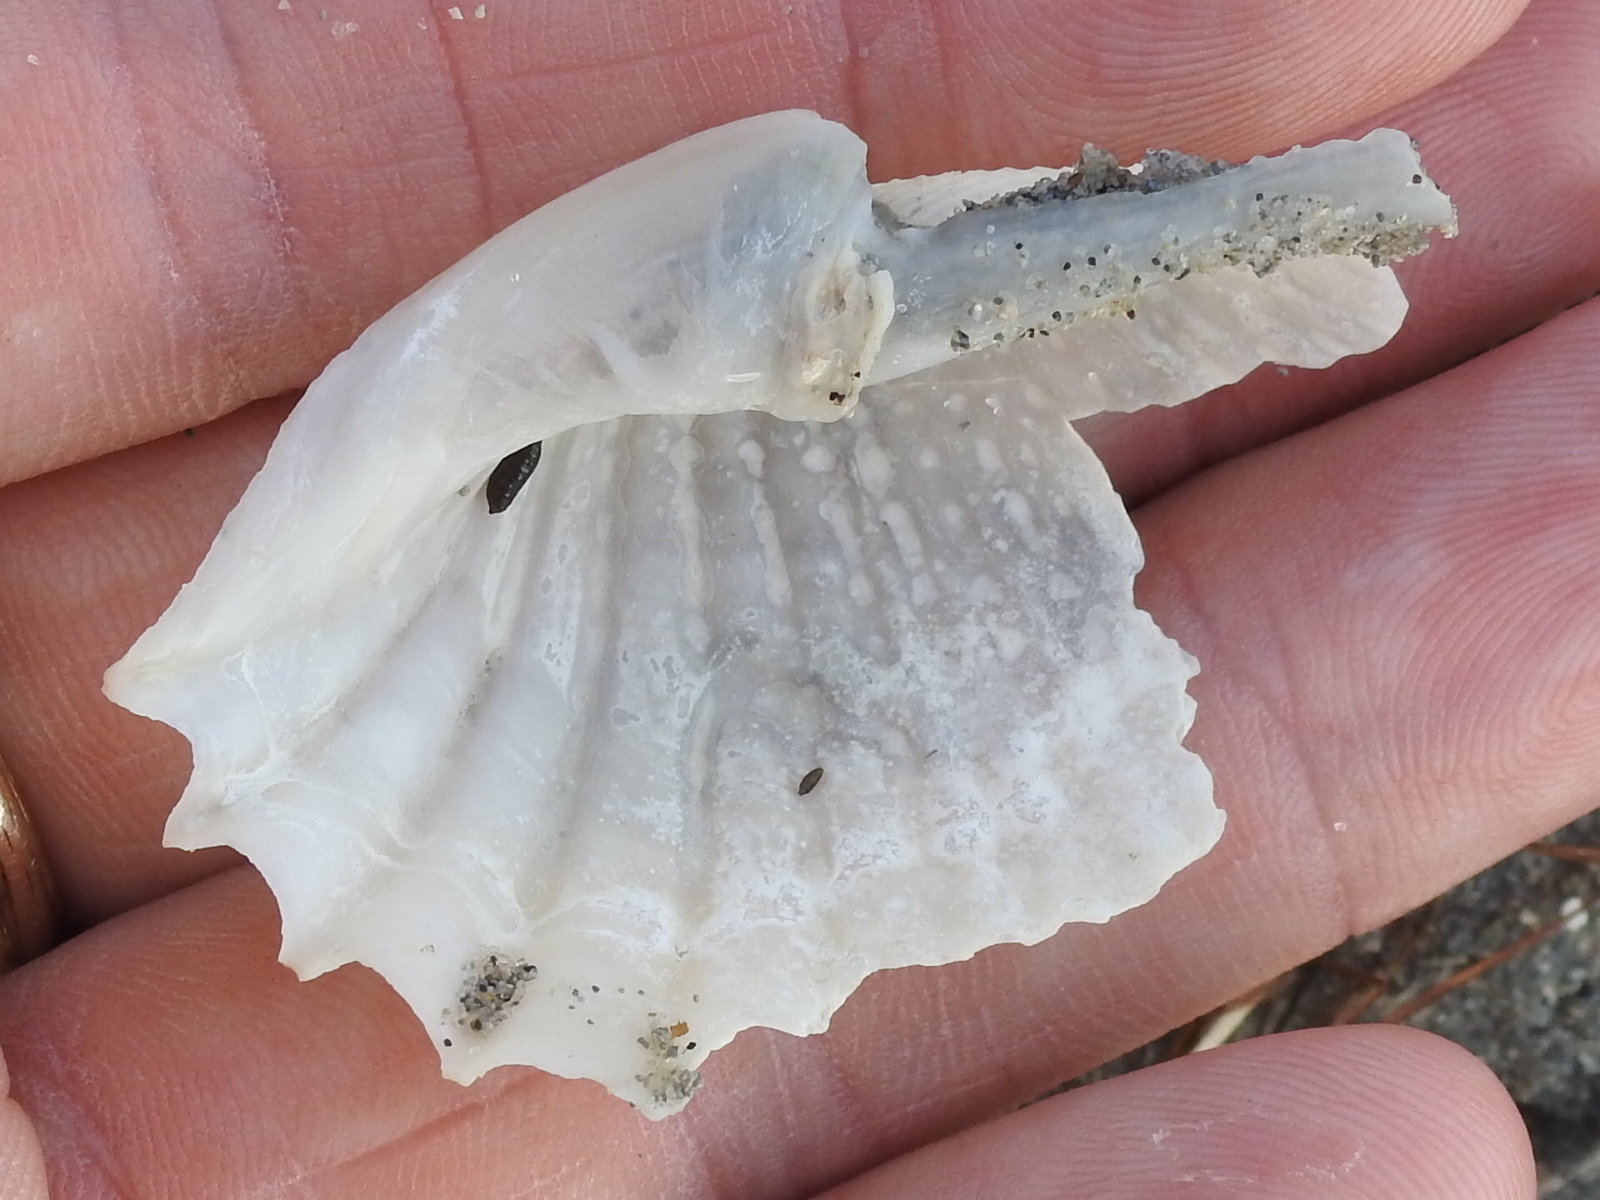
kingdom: Animalia
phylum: Mollusca
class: Bivalvia
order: Myida
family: Pholadidae
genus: Cyrtopleura
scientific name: Cyrtopleura costata
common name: Angel wing
